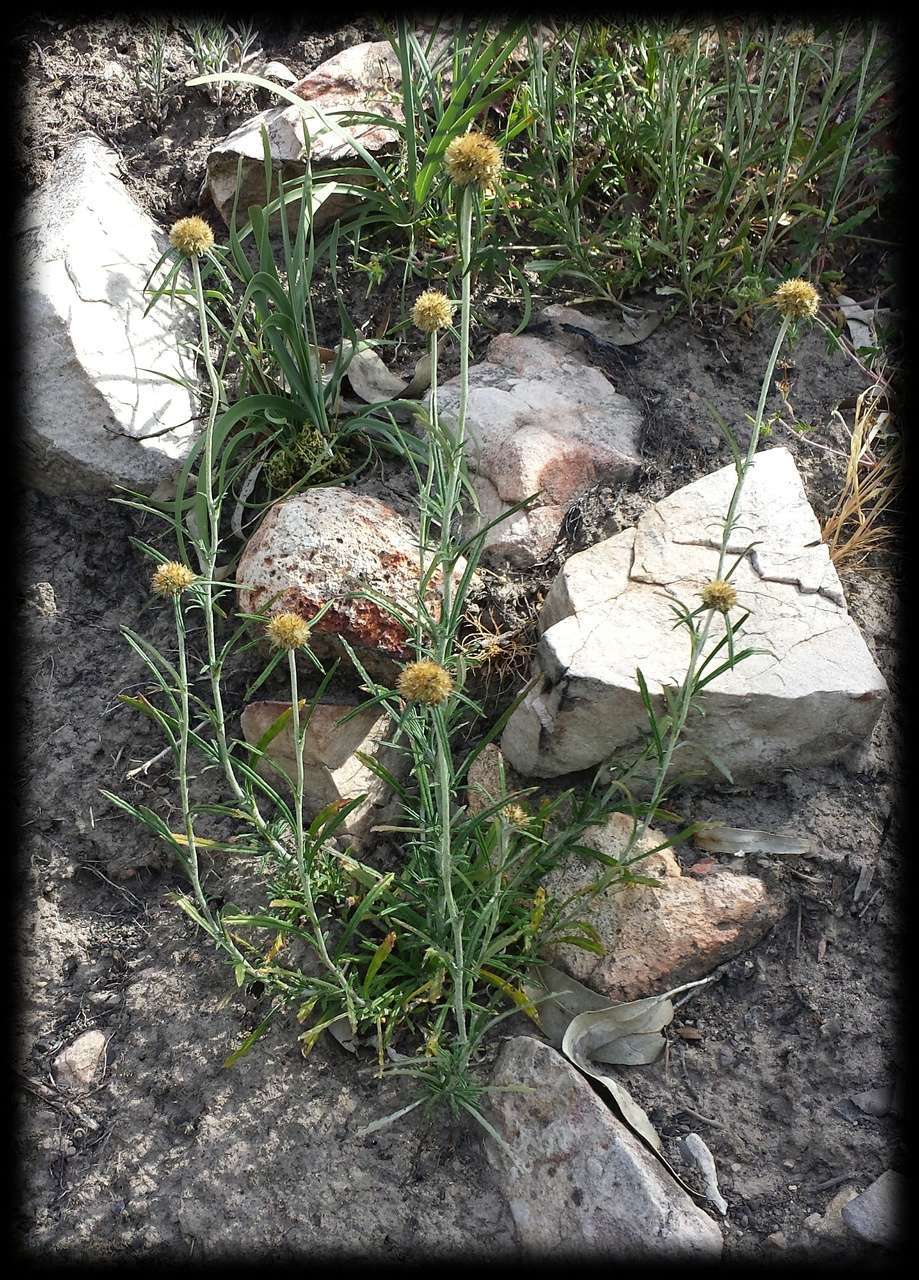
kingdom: Plantae
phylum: Tracheophyta
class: Magnoliopsida
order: Asterales
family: Asteraceae
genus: Euchiton
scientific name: Euchiton sphaericus
